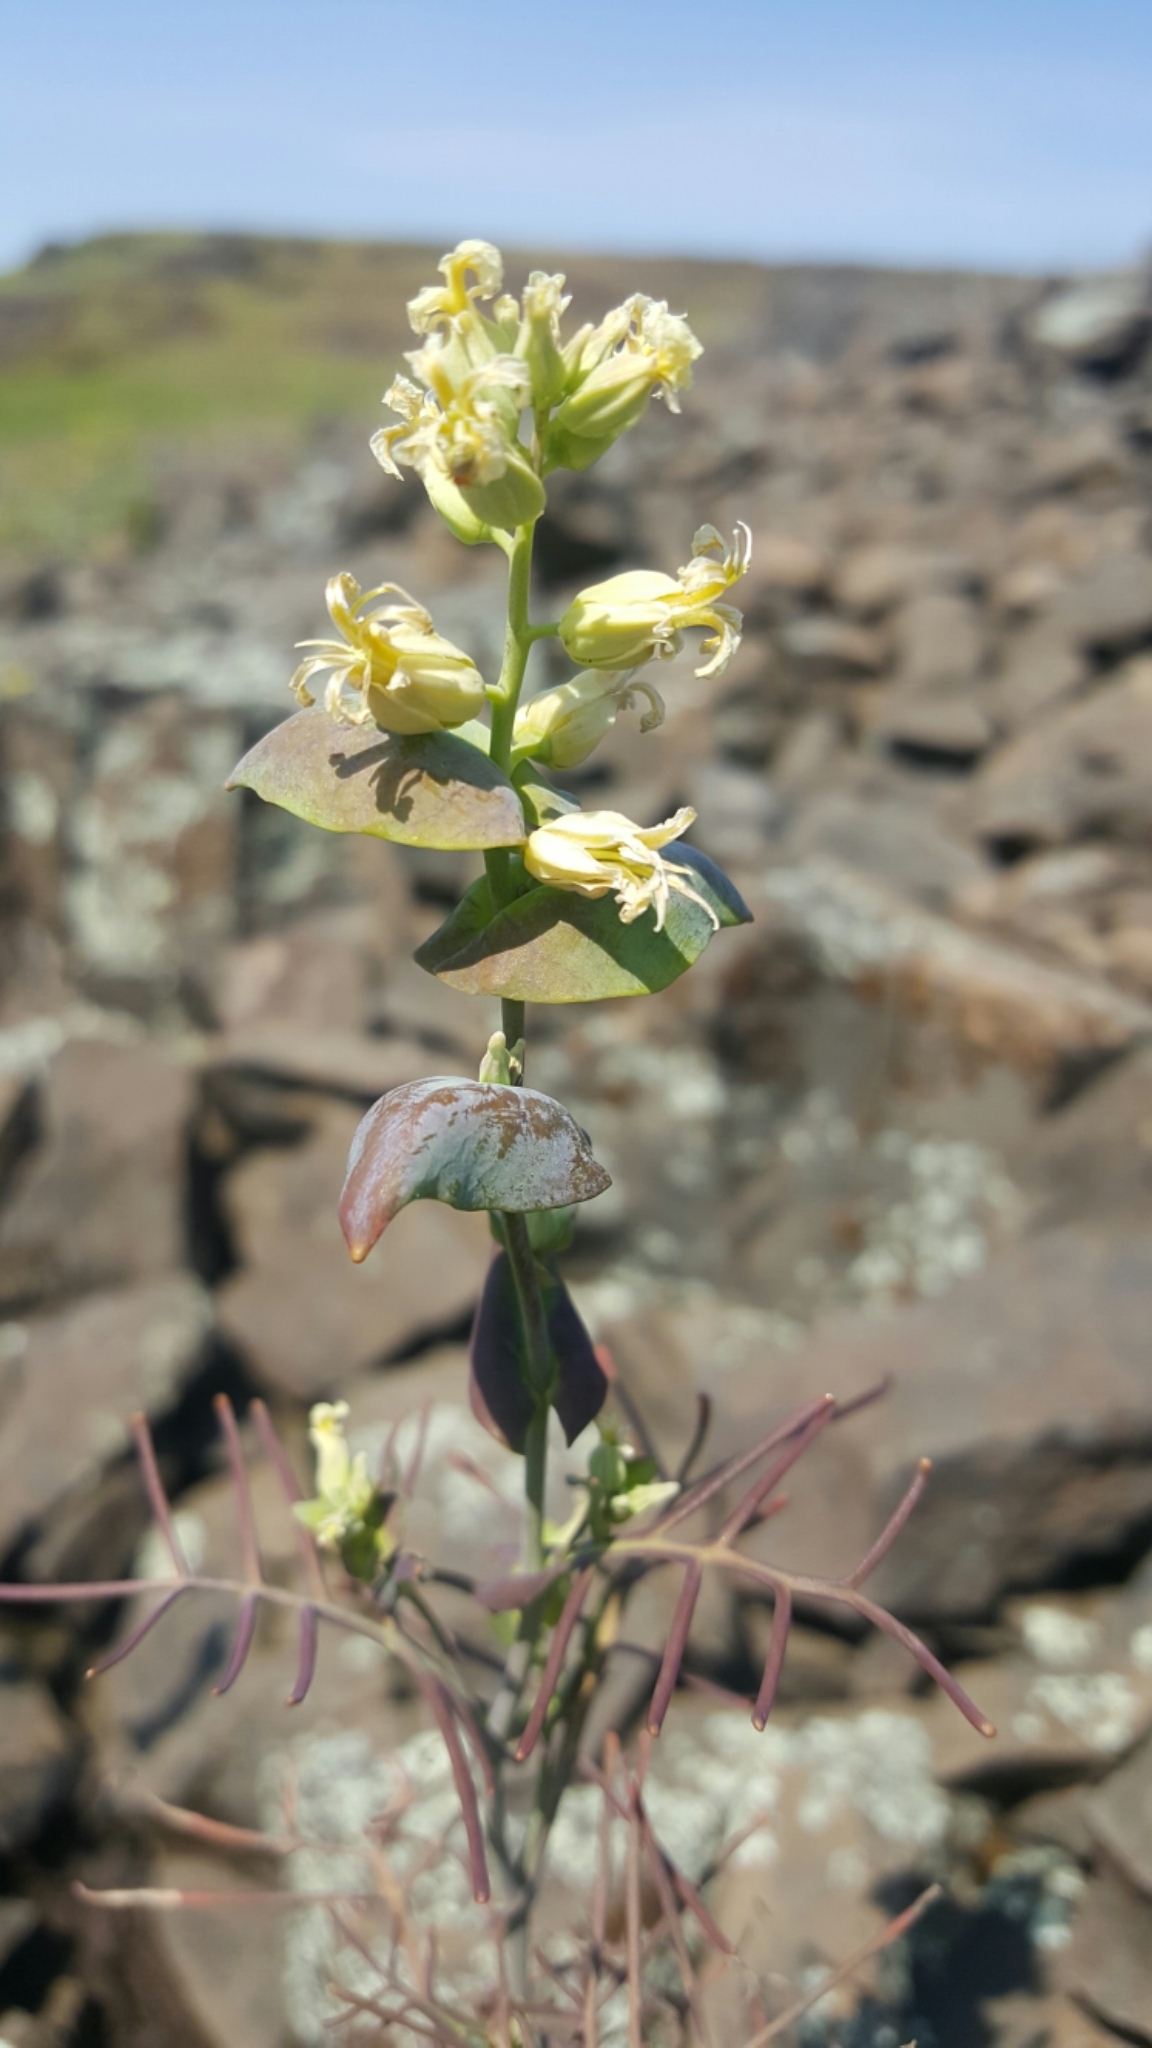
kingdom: Plantae
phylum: Tracheophyta
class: Magnoliopsida
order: Brassicales
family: Brassicaceae
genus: Streptanthus
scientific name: Streptanthus diversifolius
